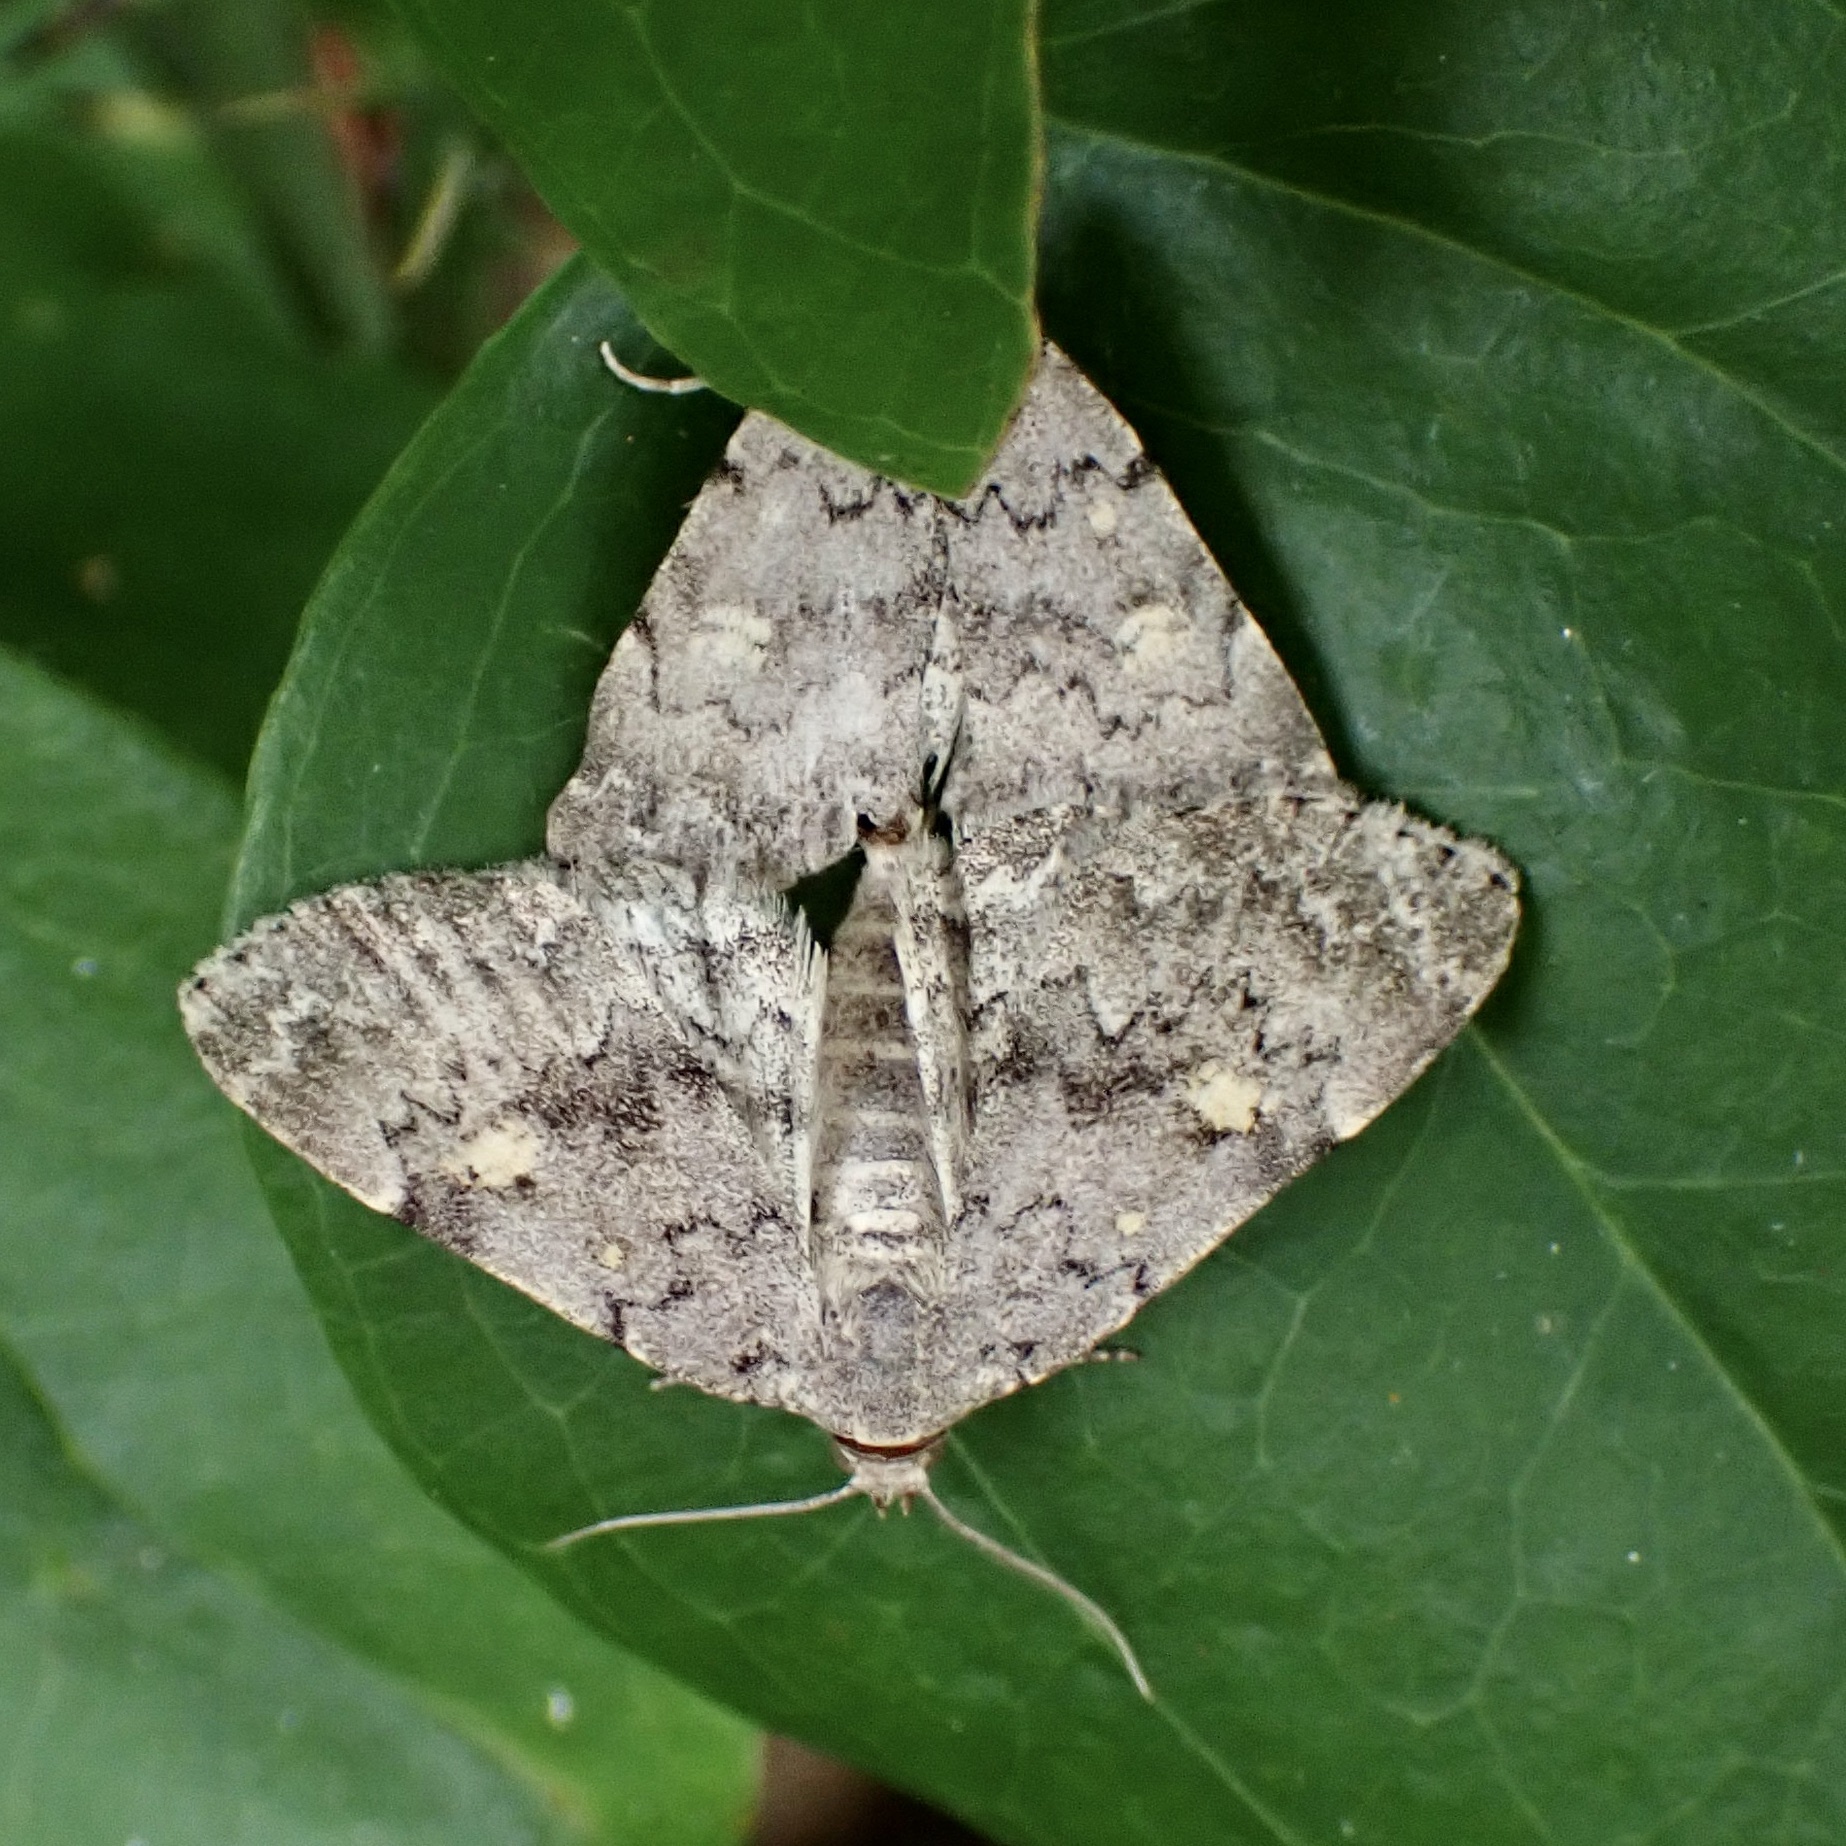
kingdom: Animalia
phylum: Arthropoda
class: Insecta
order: Lepidoptera
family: Erebidae
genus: Idia
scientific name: Idia aemula
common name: Common idia moth
